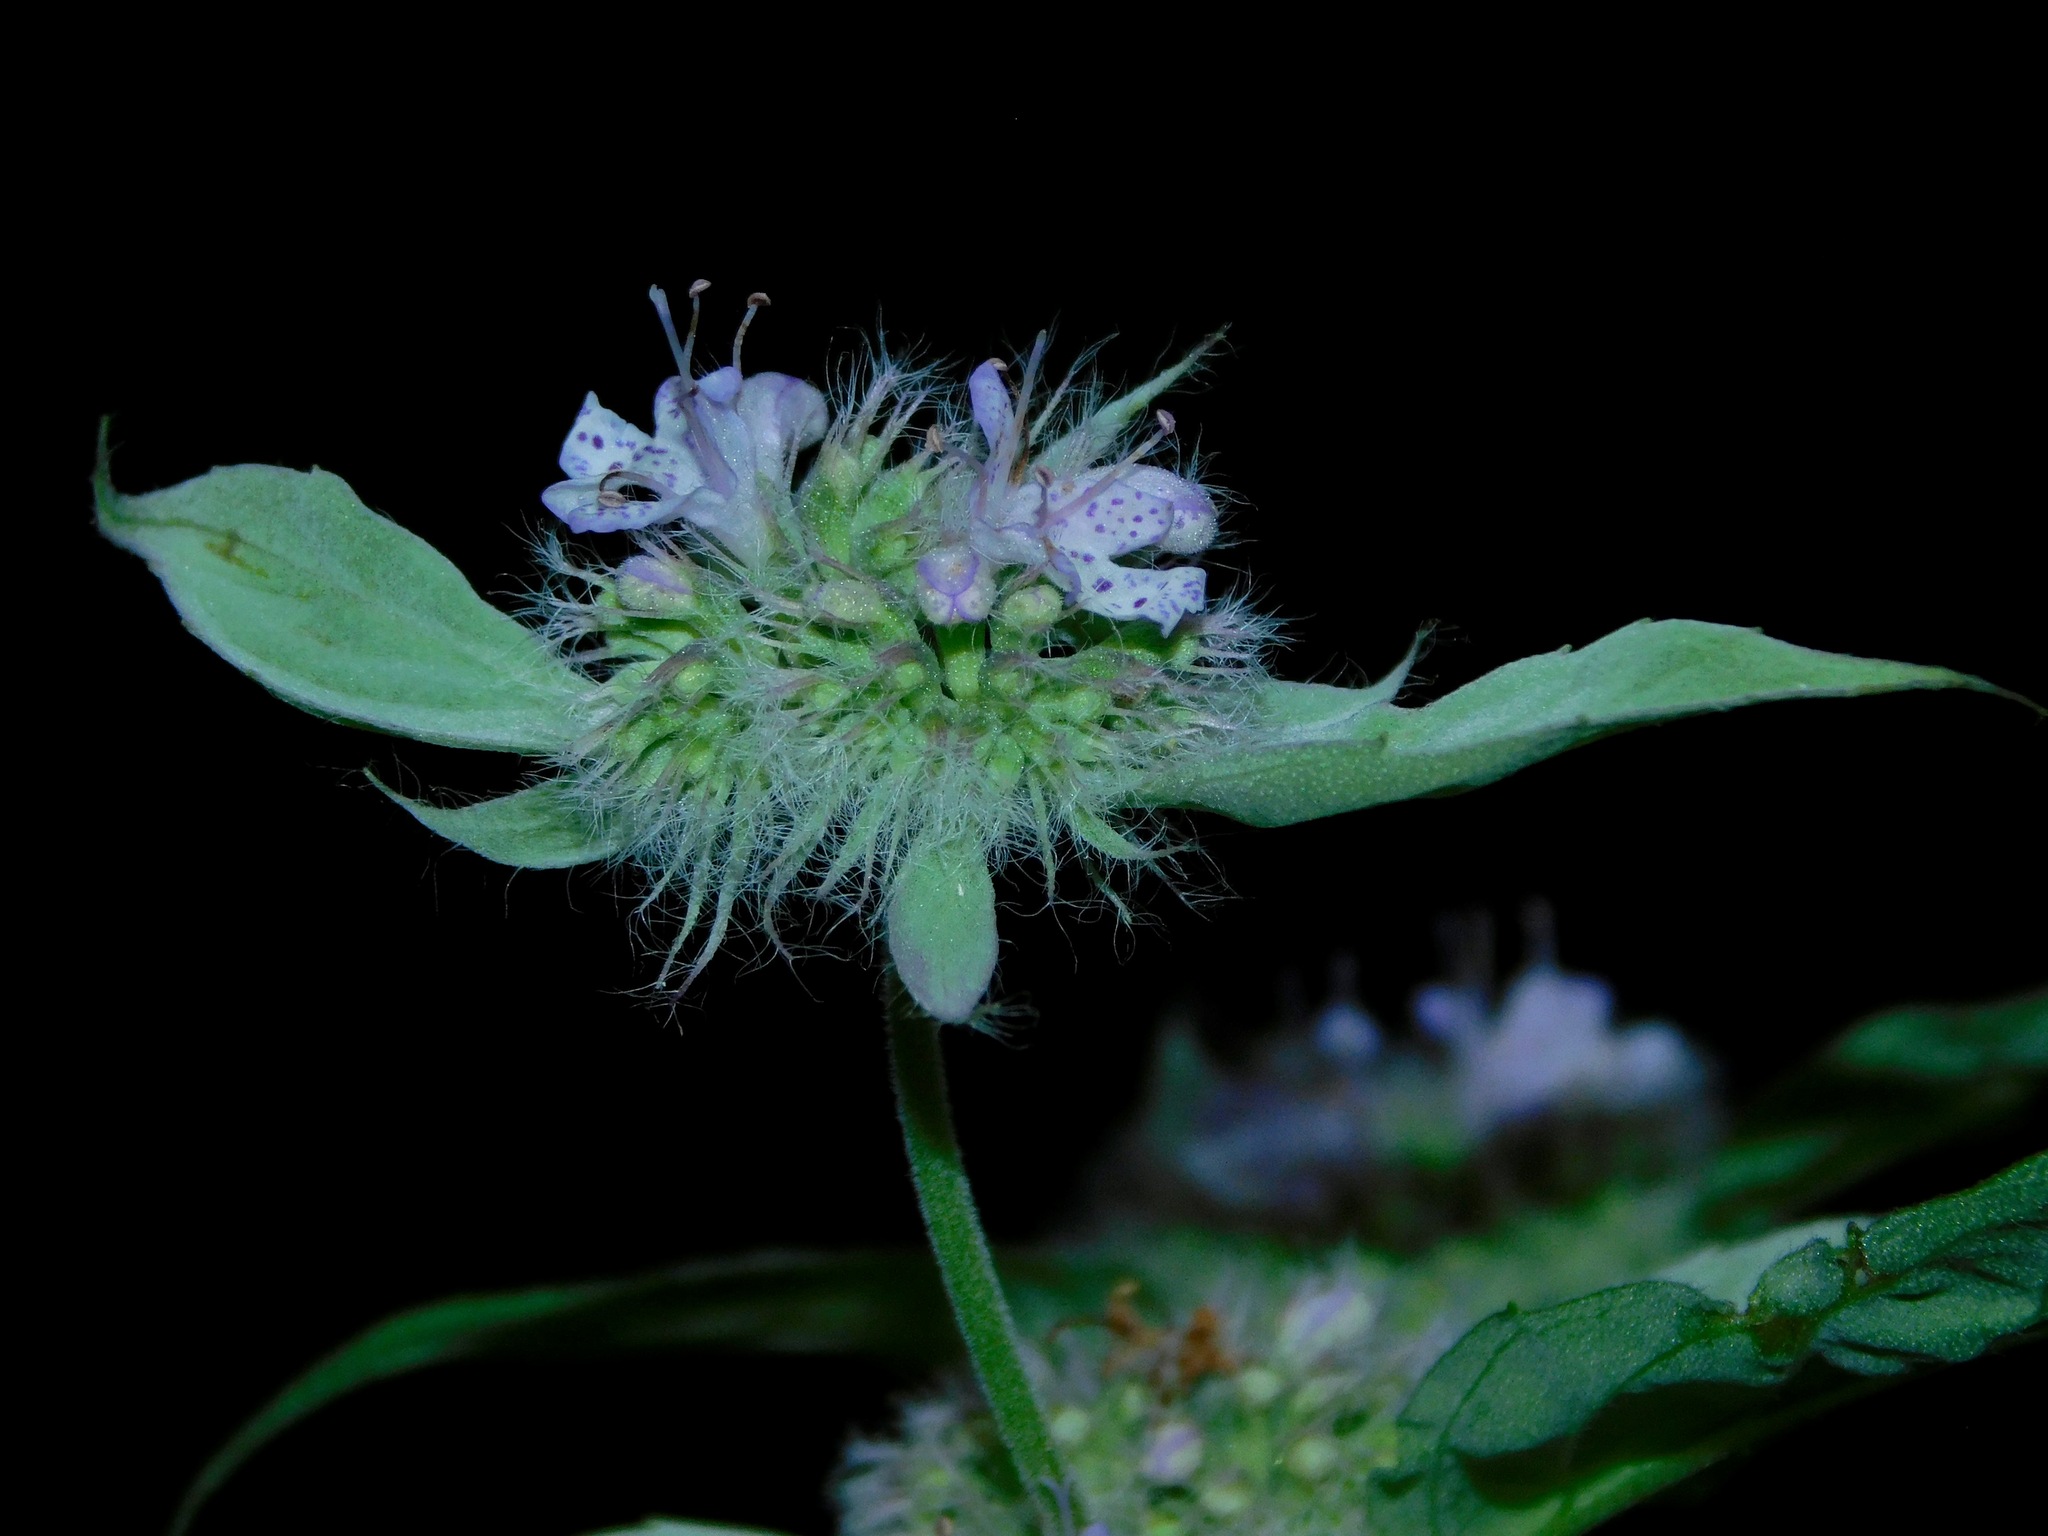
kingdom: Plantae
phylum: Tracheophyta
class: Magnoliopsida
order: Lamiales
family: Lamiaceae
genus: Pycnanthemum
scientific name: Pycnanthemum incanum
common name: Hoary mountain-mint
